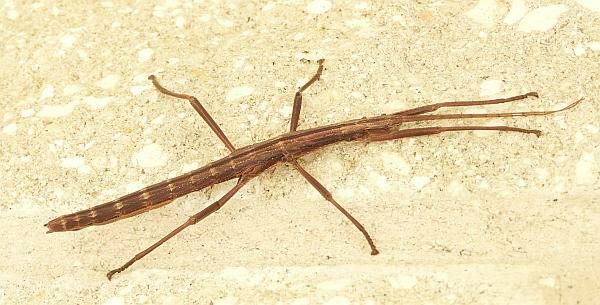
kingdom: Animalia
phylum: Arthropoda
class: Insecta
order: Phasmida
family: Pseudophasmatidae
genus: Anisomorpha
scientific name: Anisomorpha buprestoides
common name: Florida stick insect
